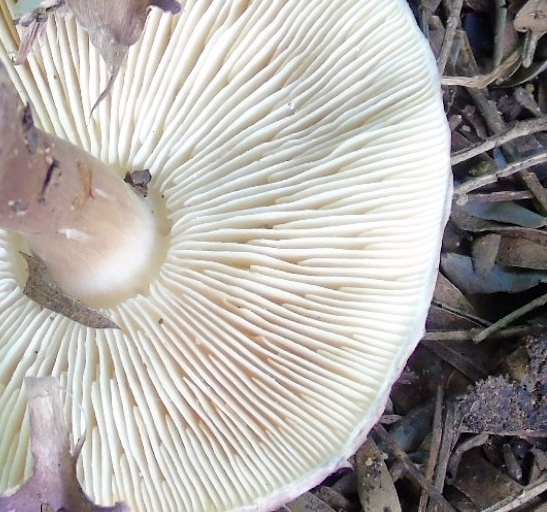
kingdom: Fungi
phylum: Basidiomycota
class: Agaricomycetes
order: Agaricales
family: Agaricaceae
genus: Leucoagaricus
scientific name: Leucoagaricus
